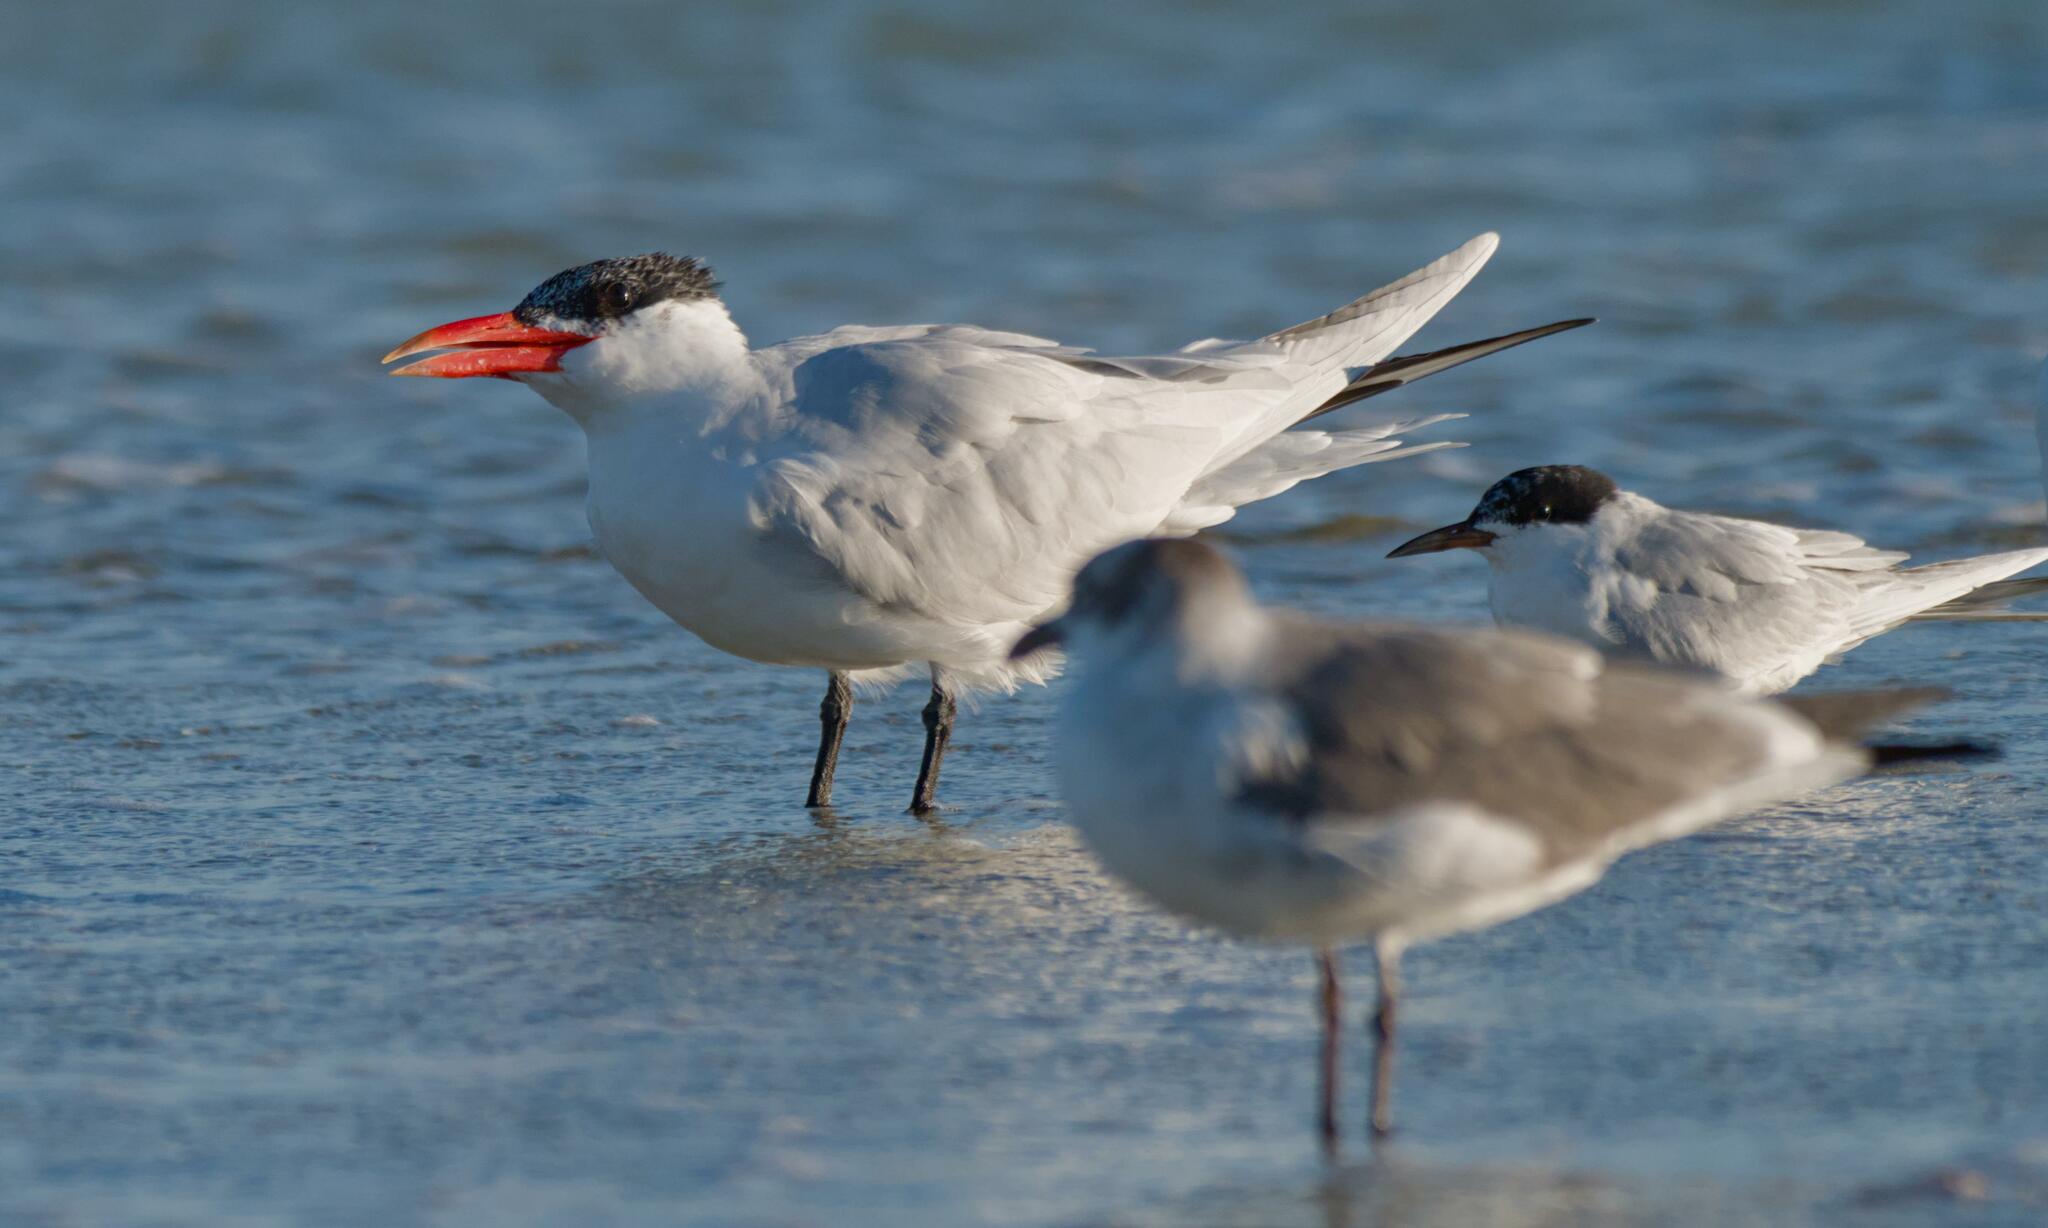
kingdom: Animalia
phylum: Chordata
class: Aves
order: Charadriiformes
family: Laridae
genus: Hydroprogne
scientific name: Hydroprogne caspia
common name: Caspian tern
